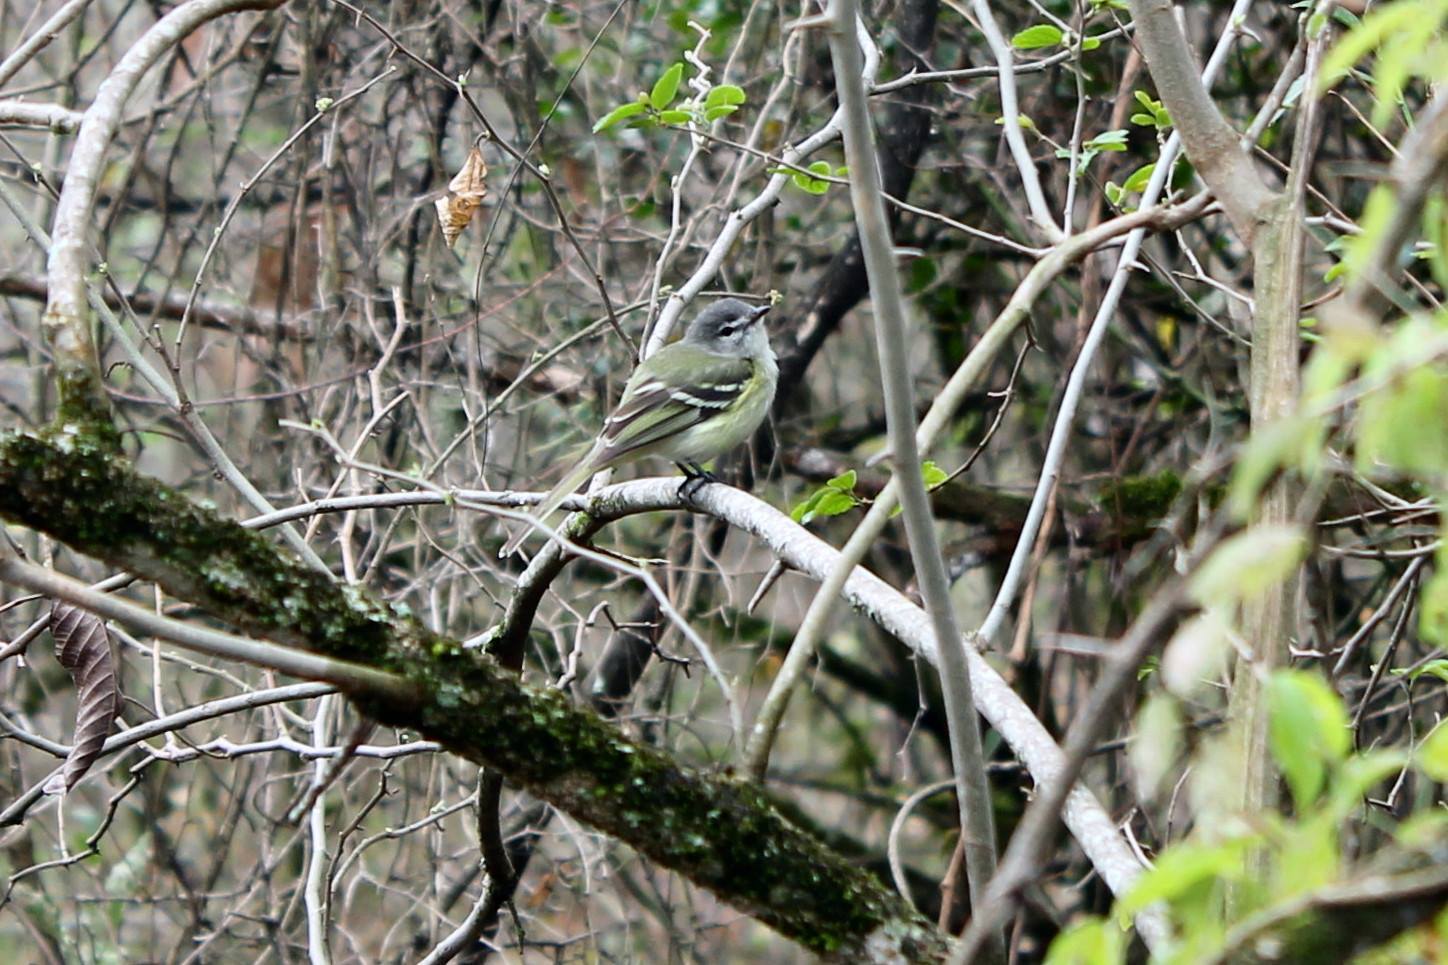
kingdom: Animalia
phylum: Chordata
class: Aves
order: Passeriformes
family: Tyrannidae
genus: Phyllomyias
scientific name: Phyllomyias sclateri
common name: Sclater's tyrannulet
